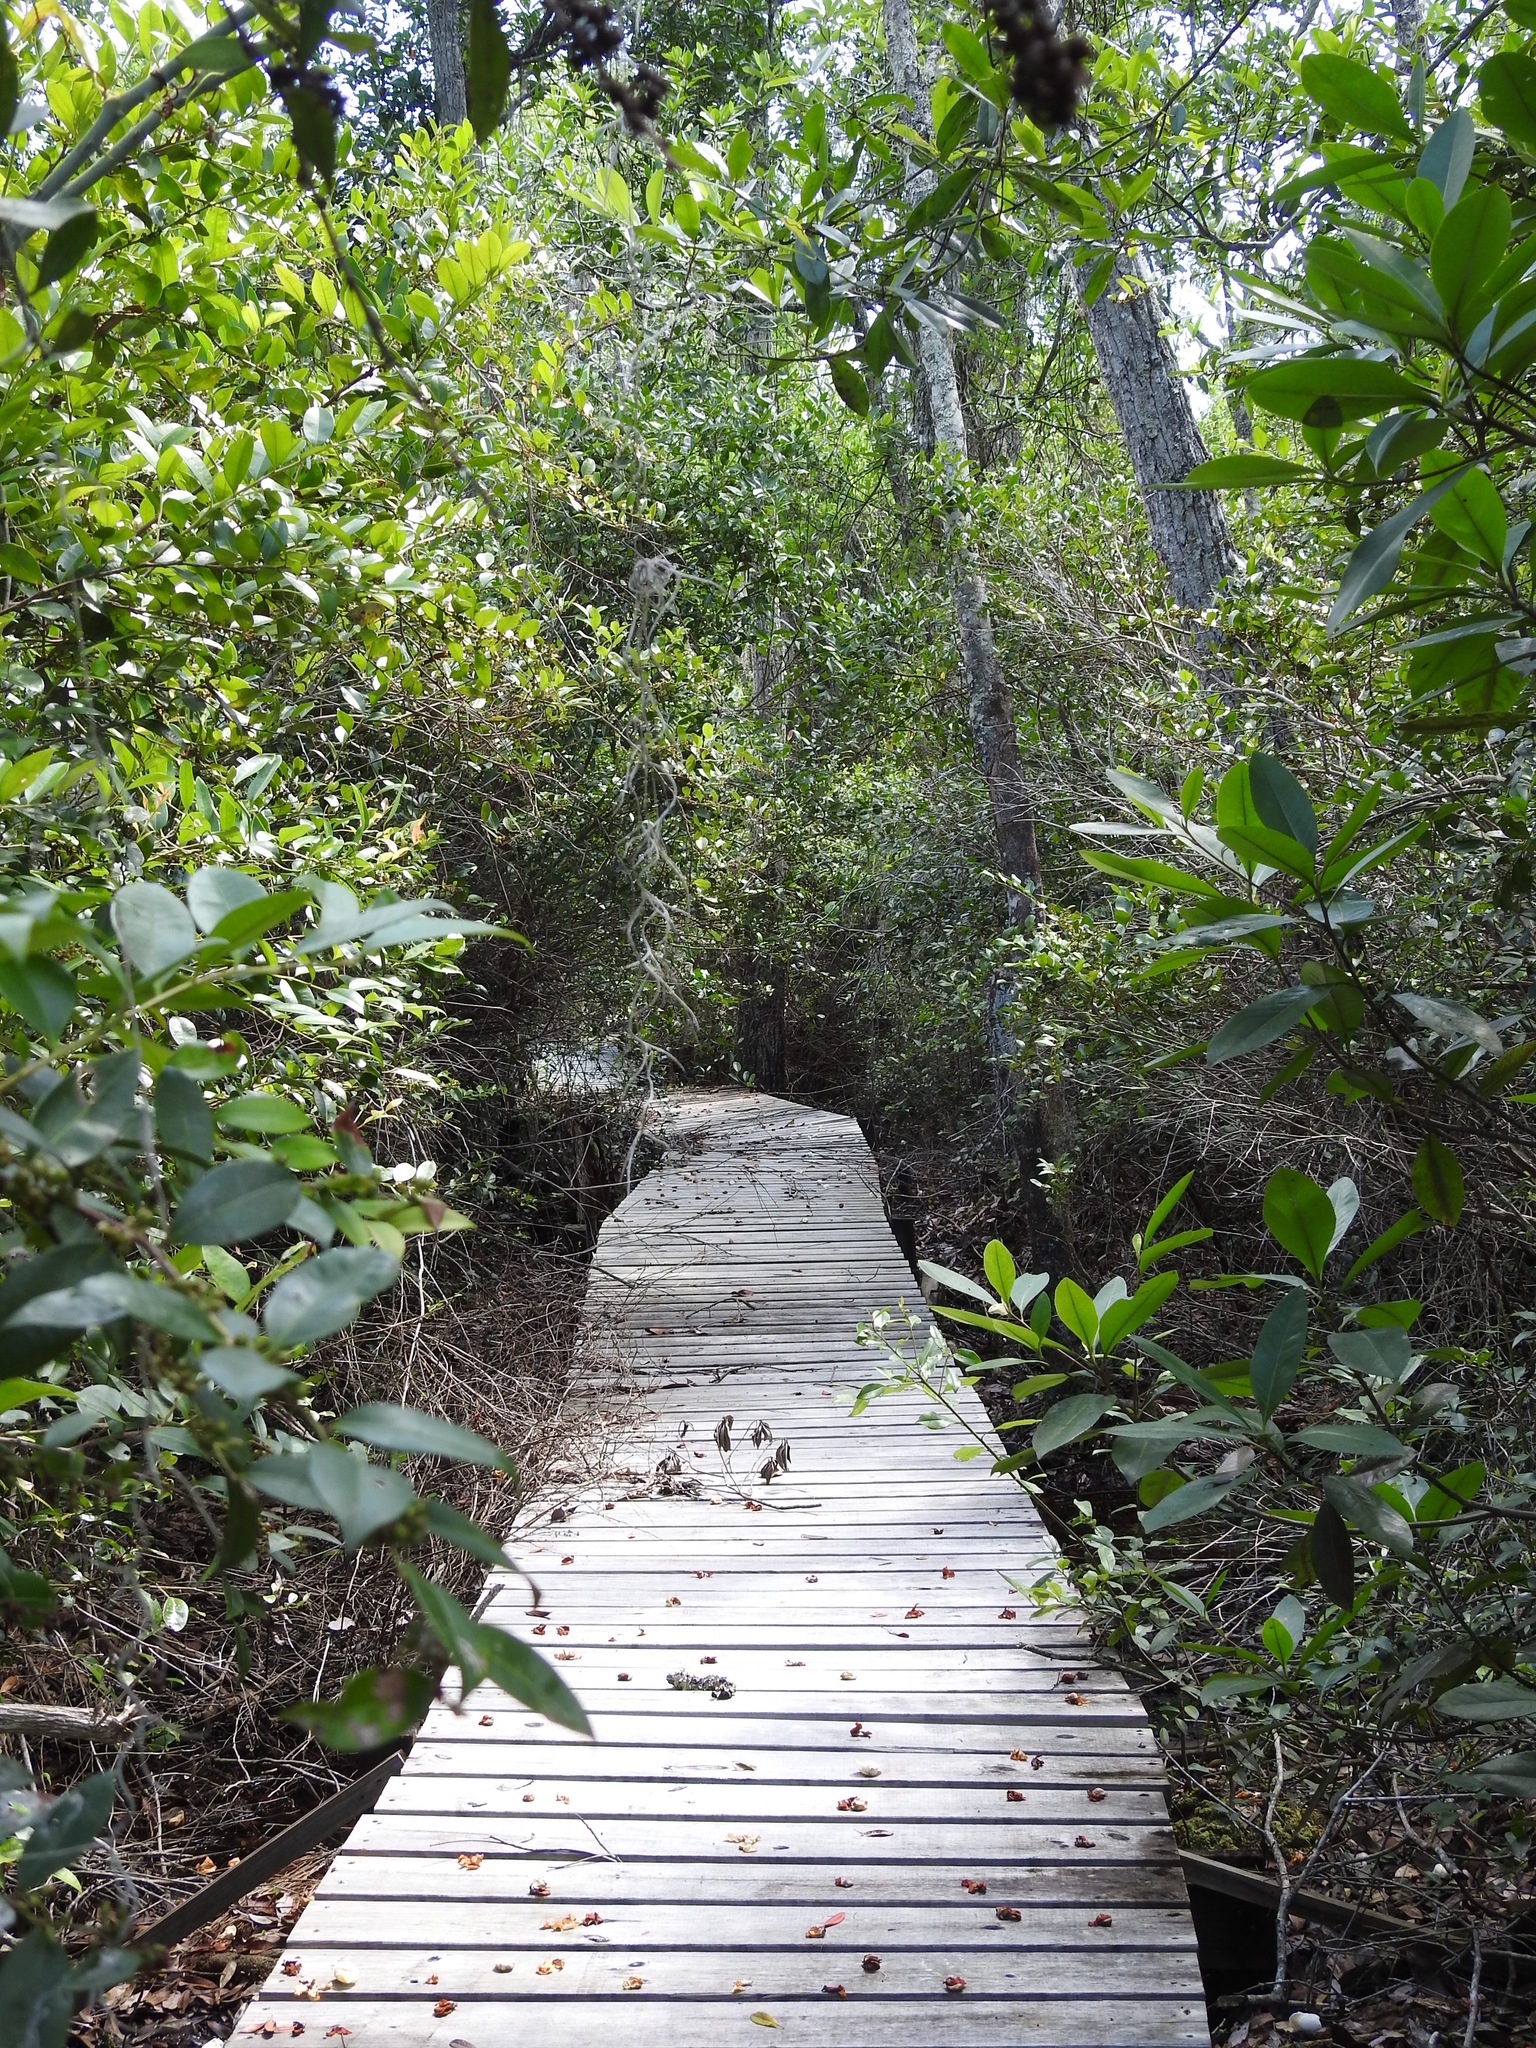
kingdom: Animalia
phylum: Arthropoda
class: Insecta
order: Odonata
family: Macromiidae
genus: Macromia
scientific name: Macromia taeniolata
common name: Royal river cruiser
